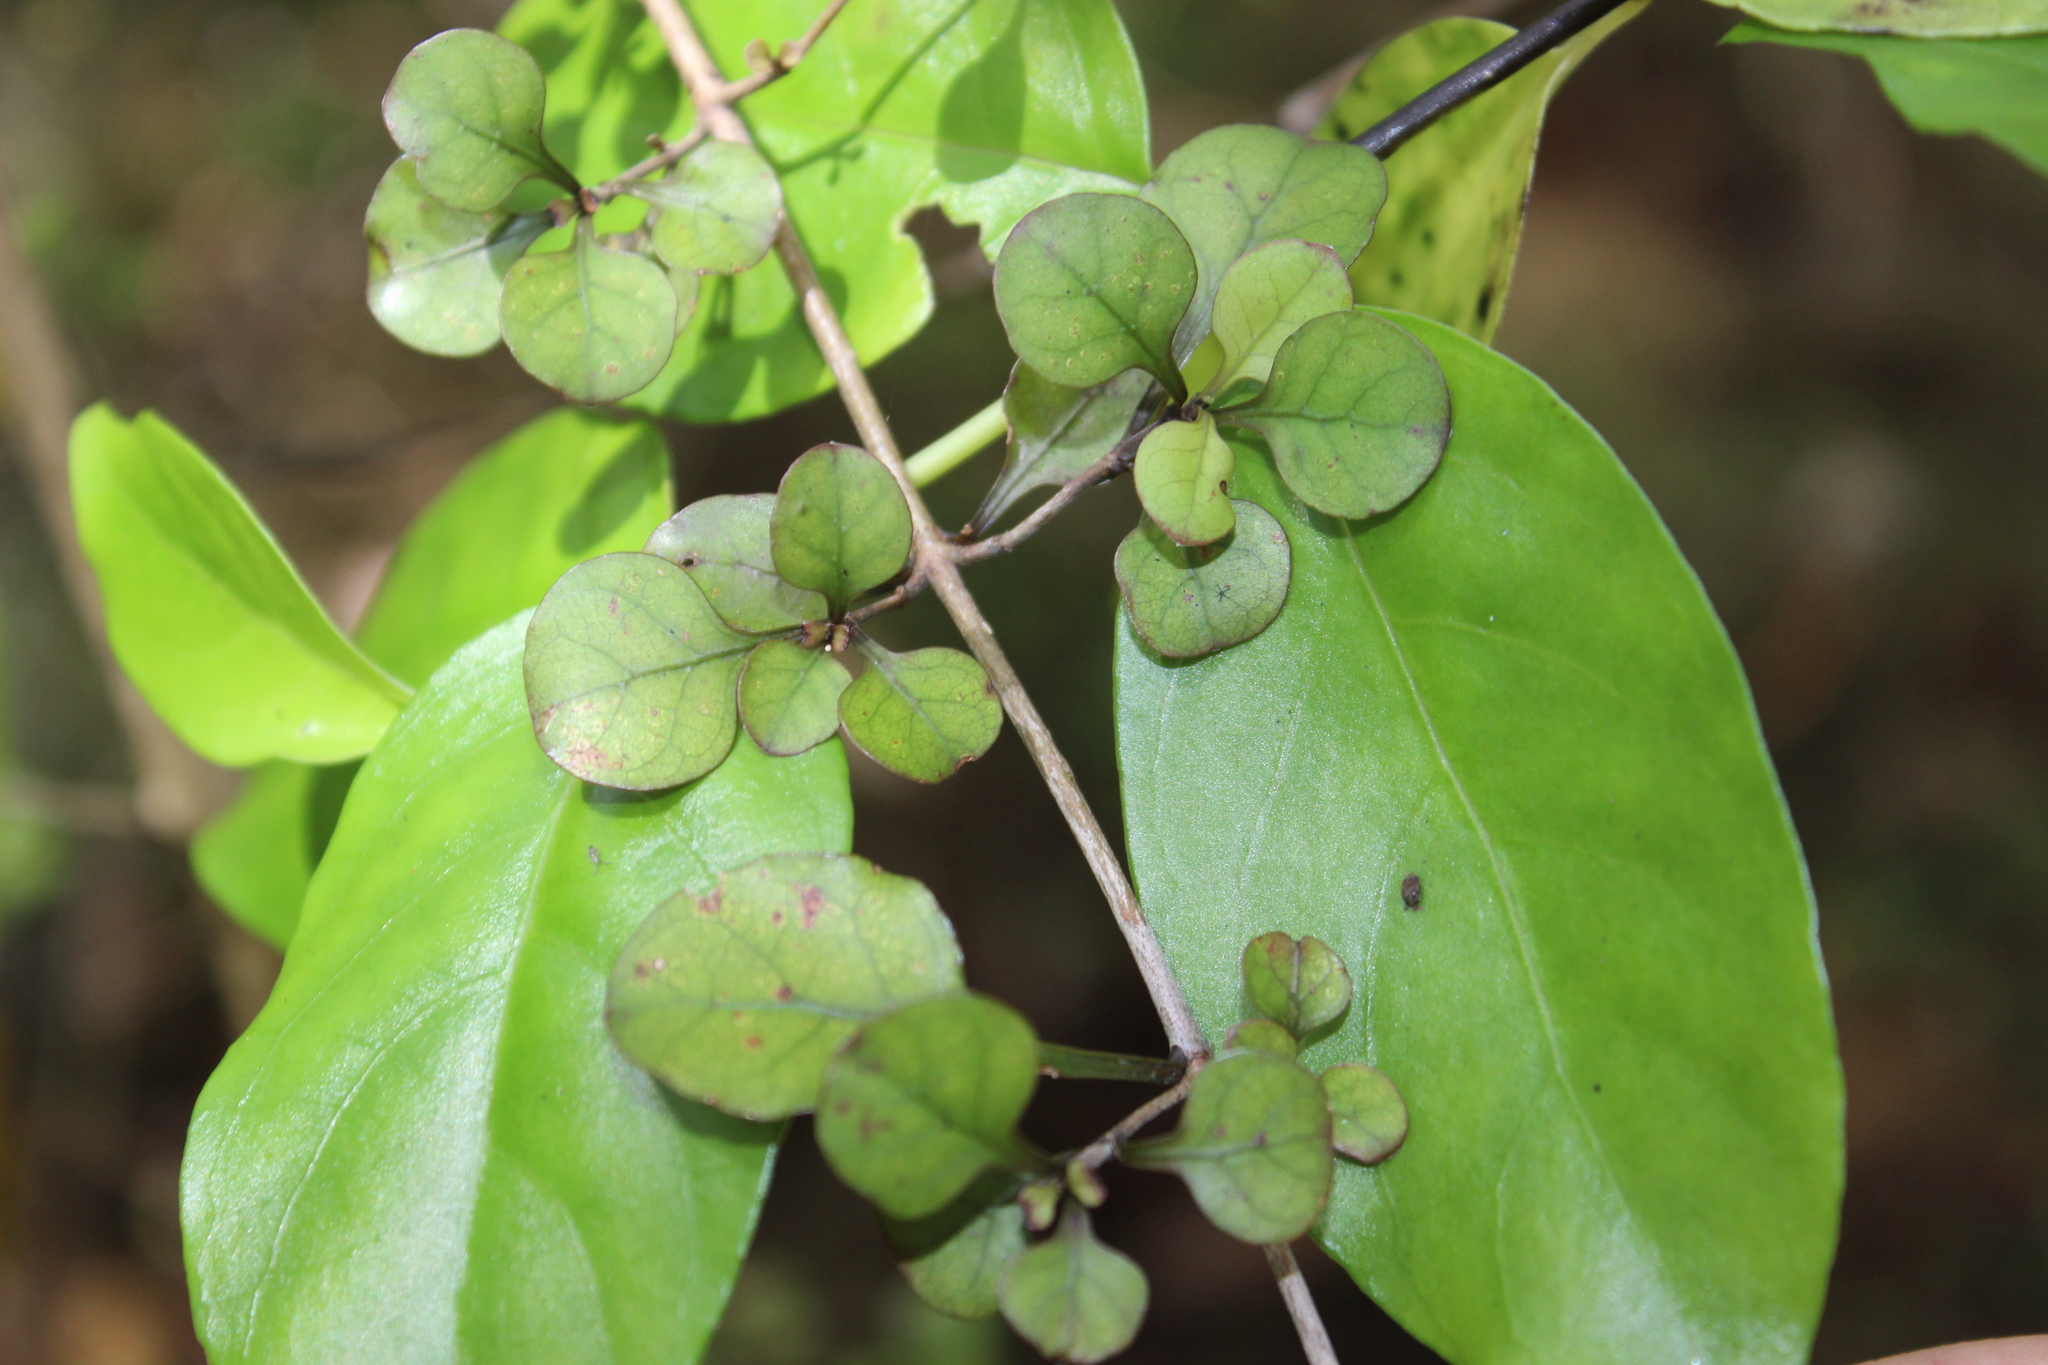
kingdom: Plantae
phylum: Tracheophyta
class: Magnoliopsida
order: Gentianales
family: Rubiaceae
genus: Coprosma
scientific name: Coprosma arborea
